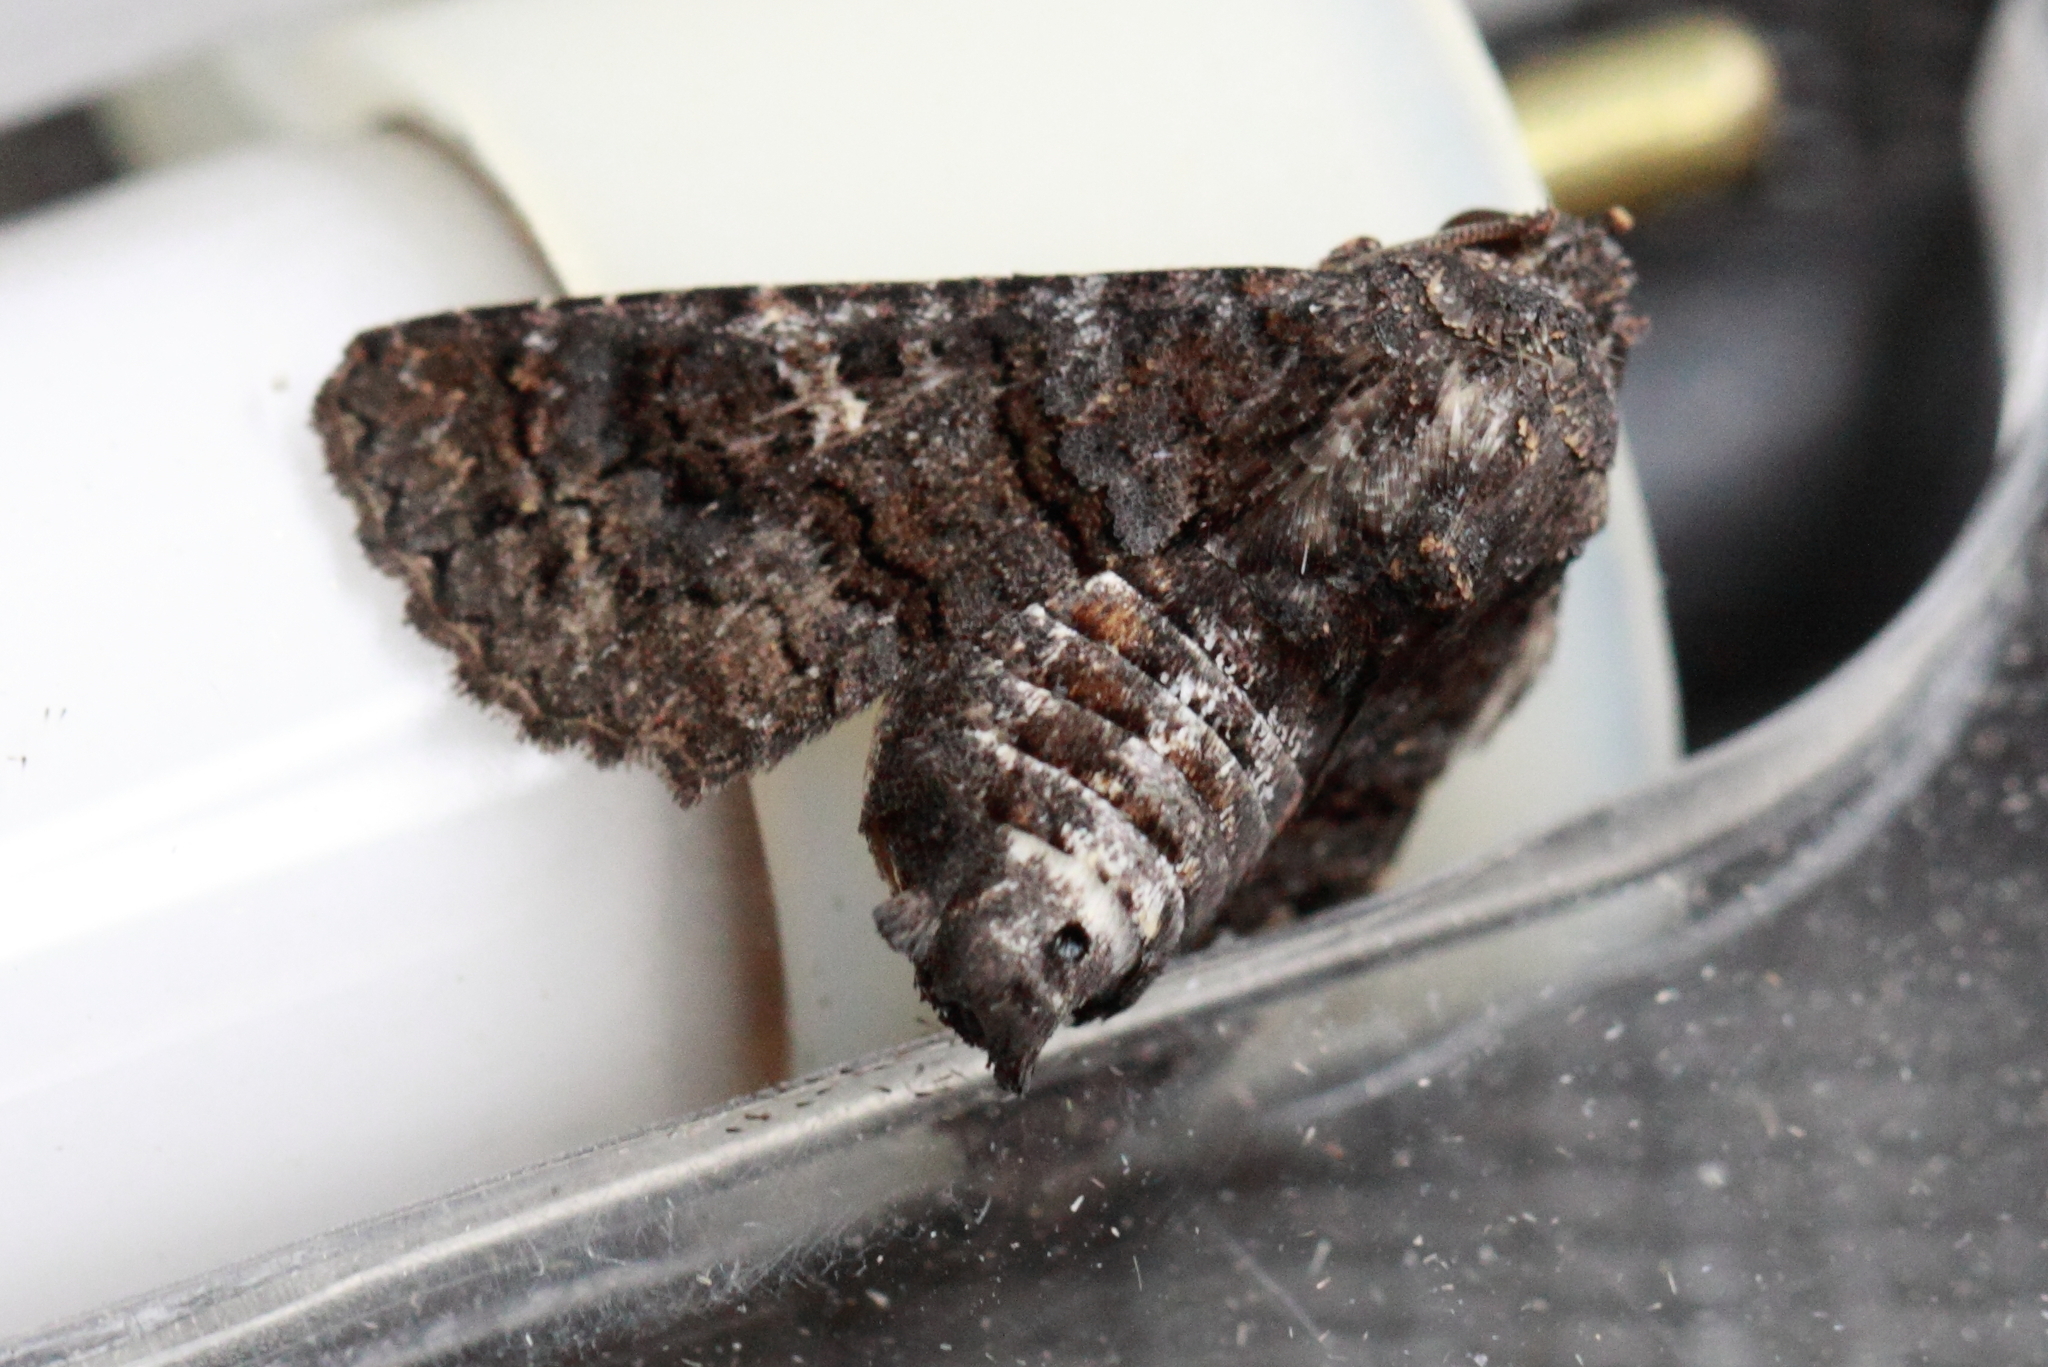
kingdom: Animalia
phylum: Arthropoda
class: Insecta
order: Lepidoptera
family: Euteliidae
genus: Pataeta
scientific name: Pataeta carbo
